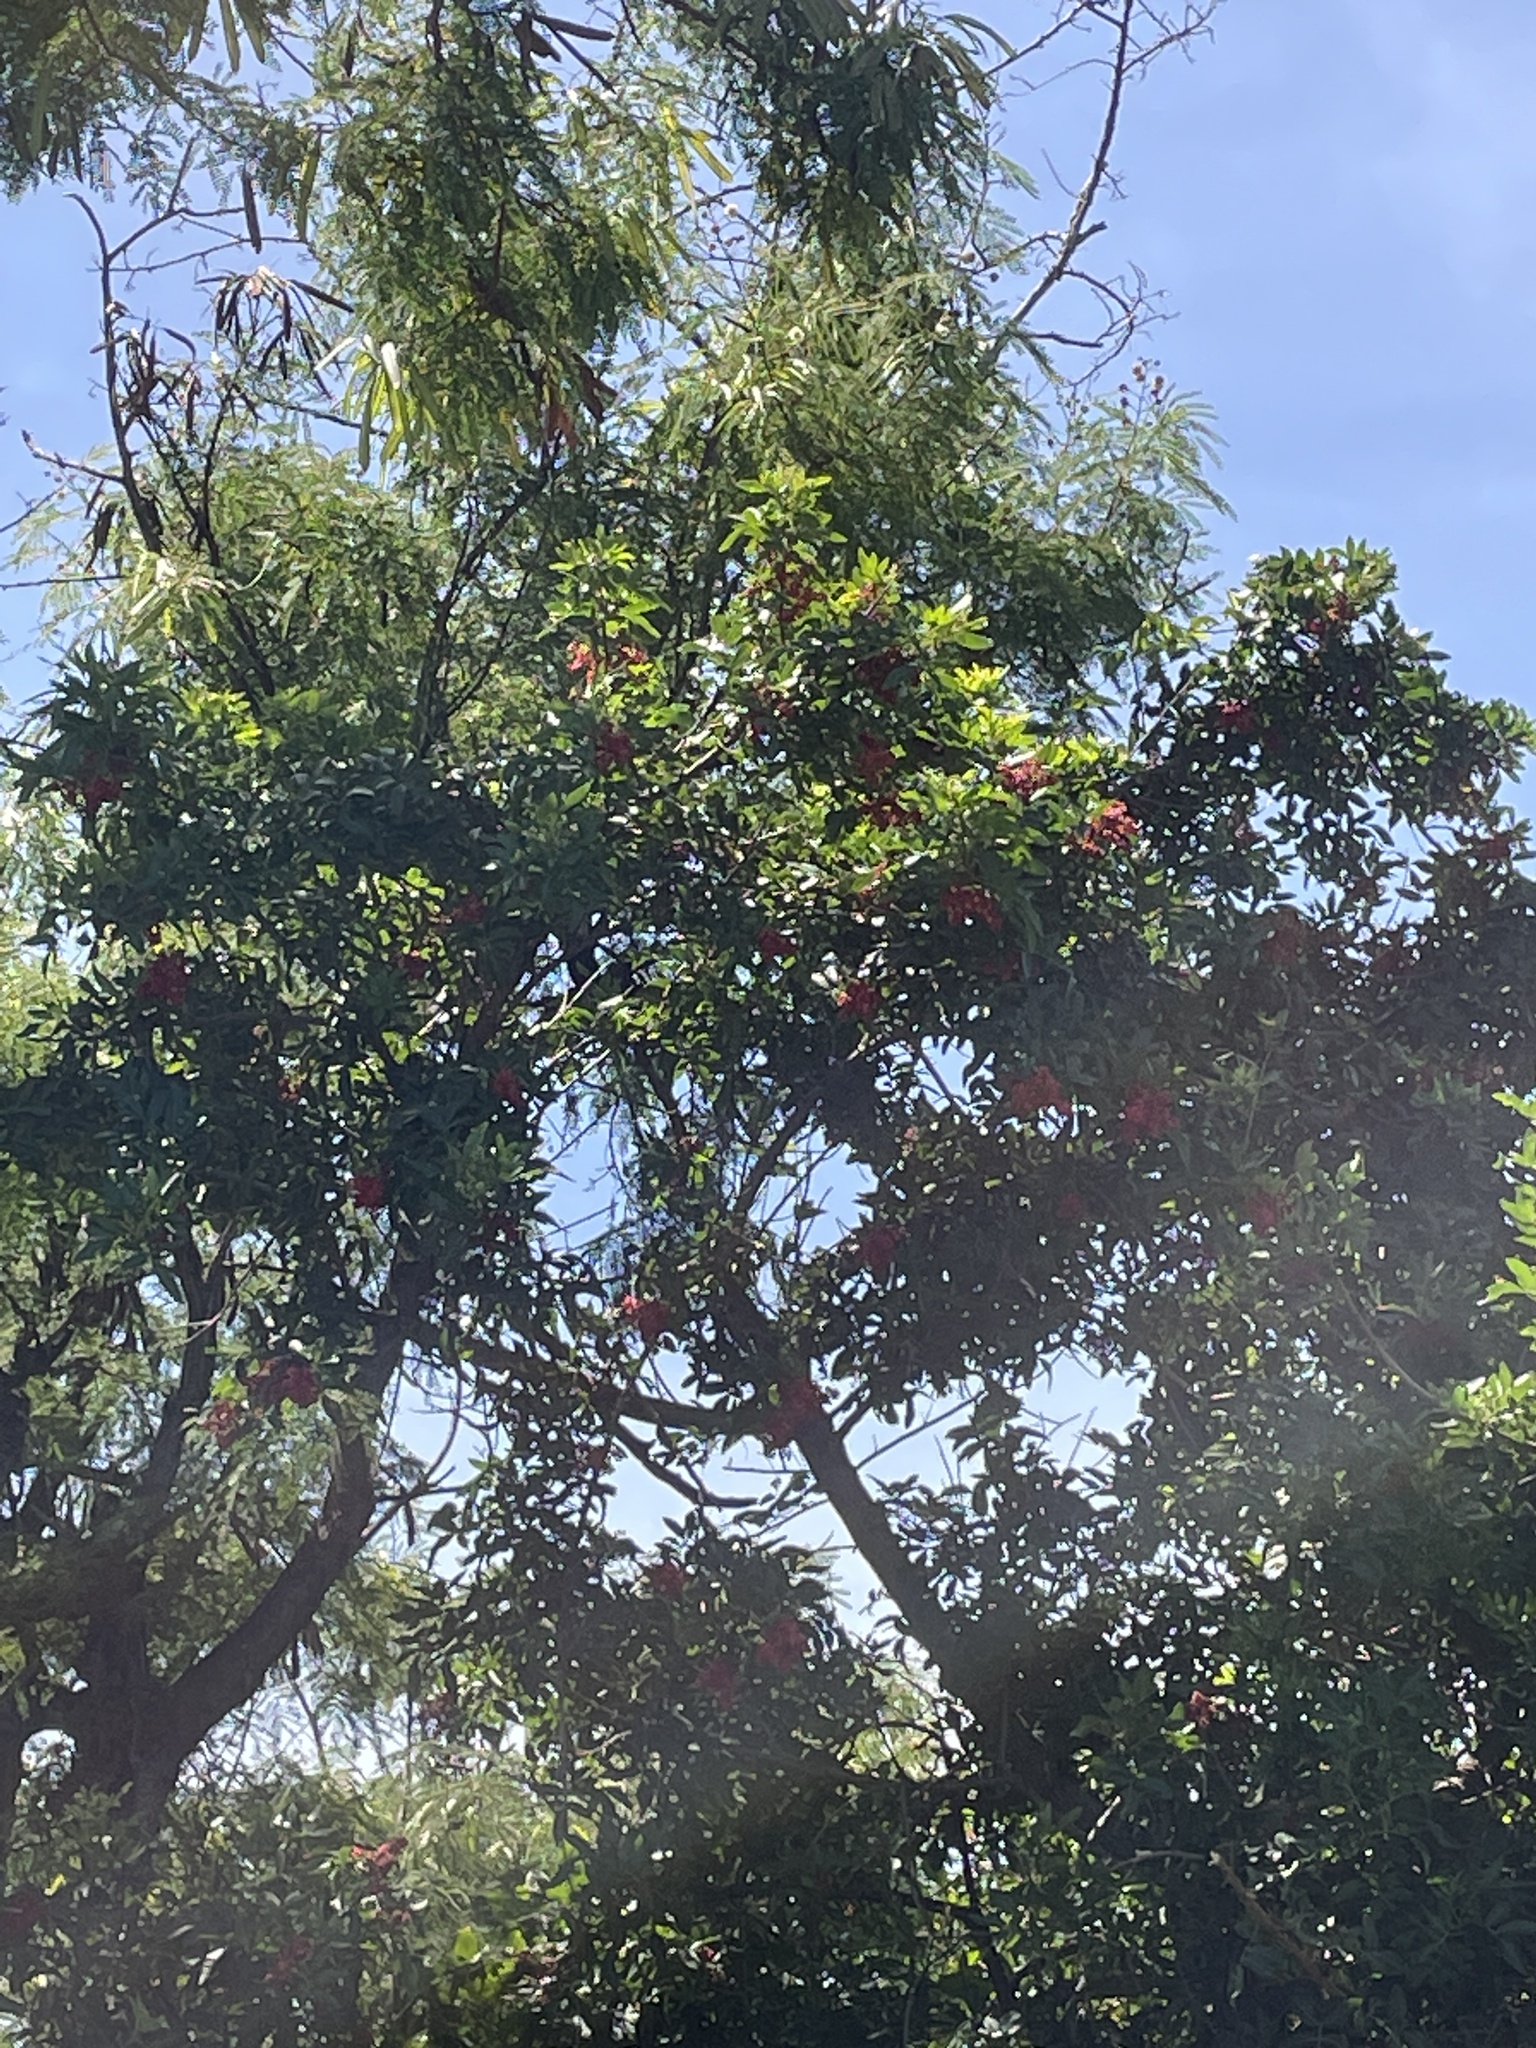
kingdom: Plantae
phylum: Tracheophyta
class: Magnoliopsida
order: Sapindales
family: Anacardiaceae
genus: Schinus
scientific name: Schinus terebinthifolia
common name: Brazilian peppertree
